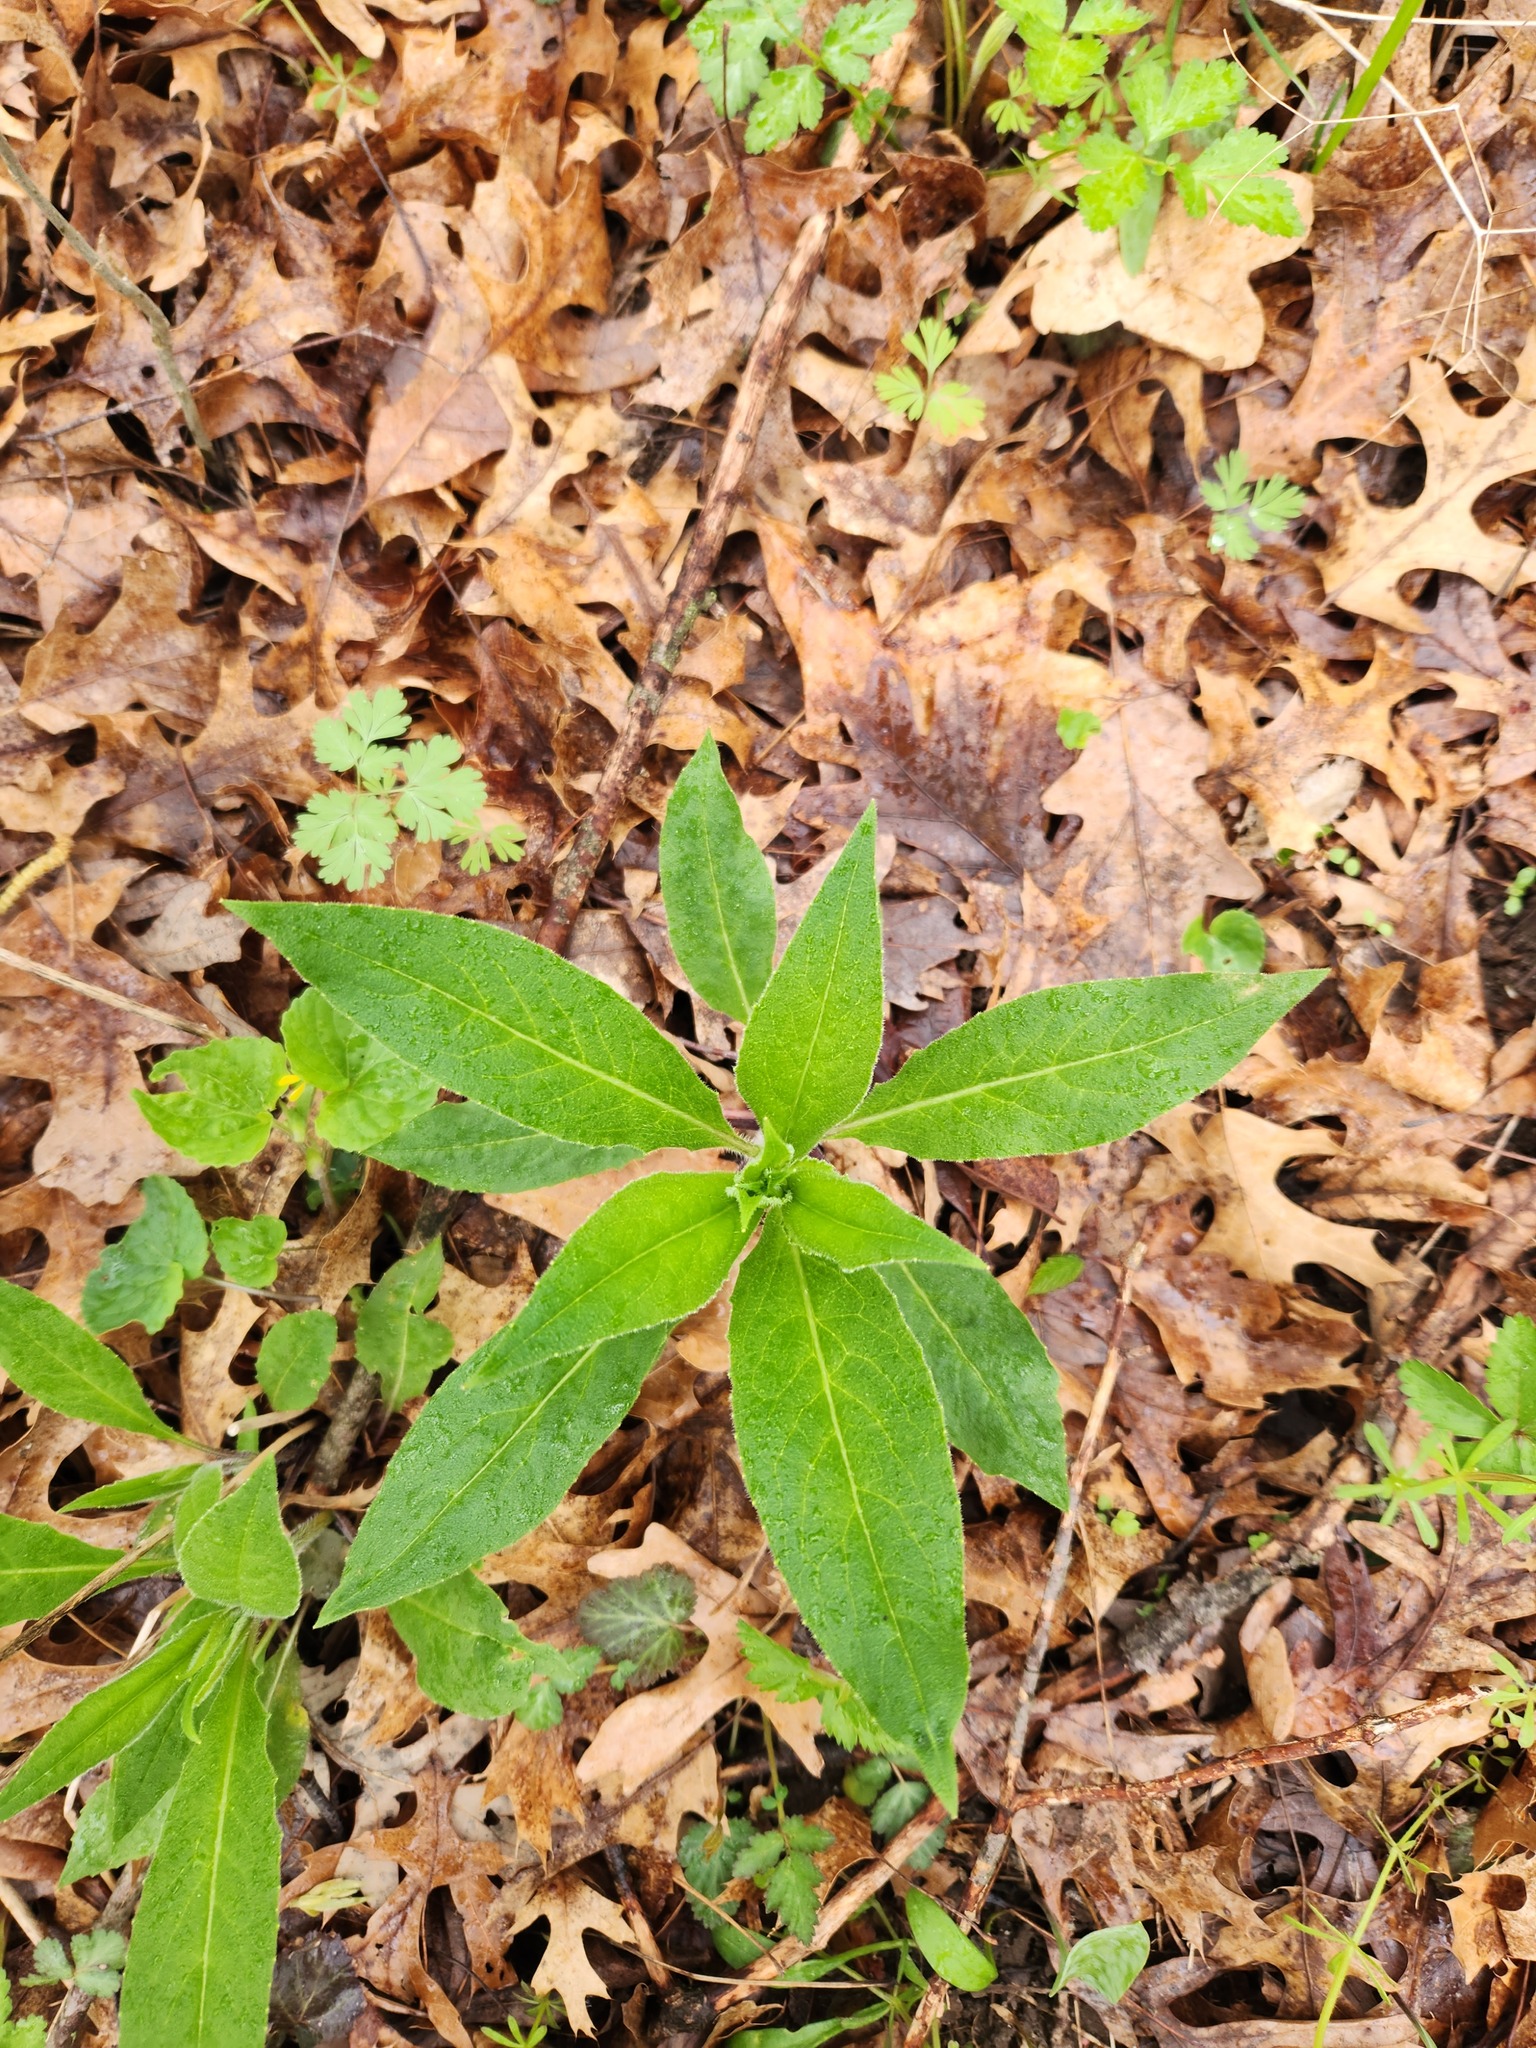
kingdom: Plantae
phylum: Tracheophyta
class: Magnoliopsida
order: Brassicales
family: Brassicaceae
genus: Hesperis
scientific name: Hesperis matronalis
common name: Dame's-violet
